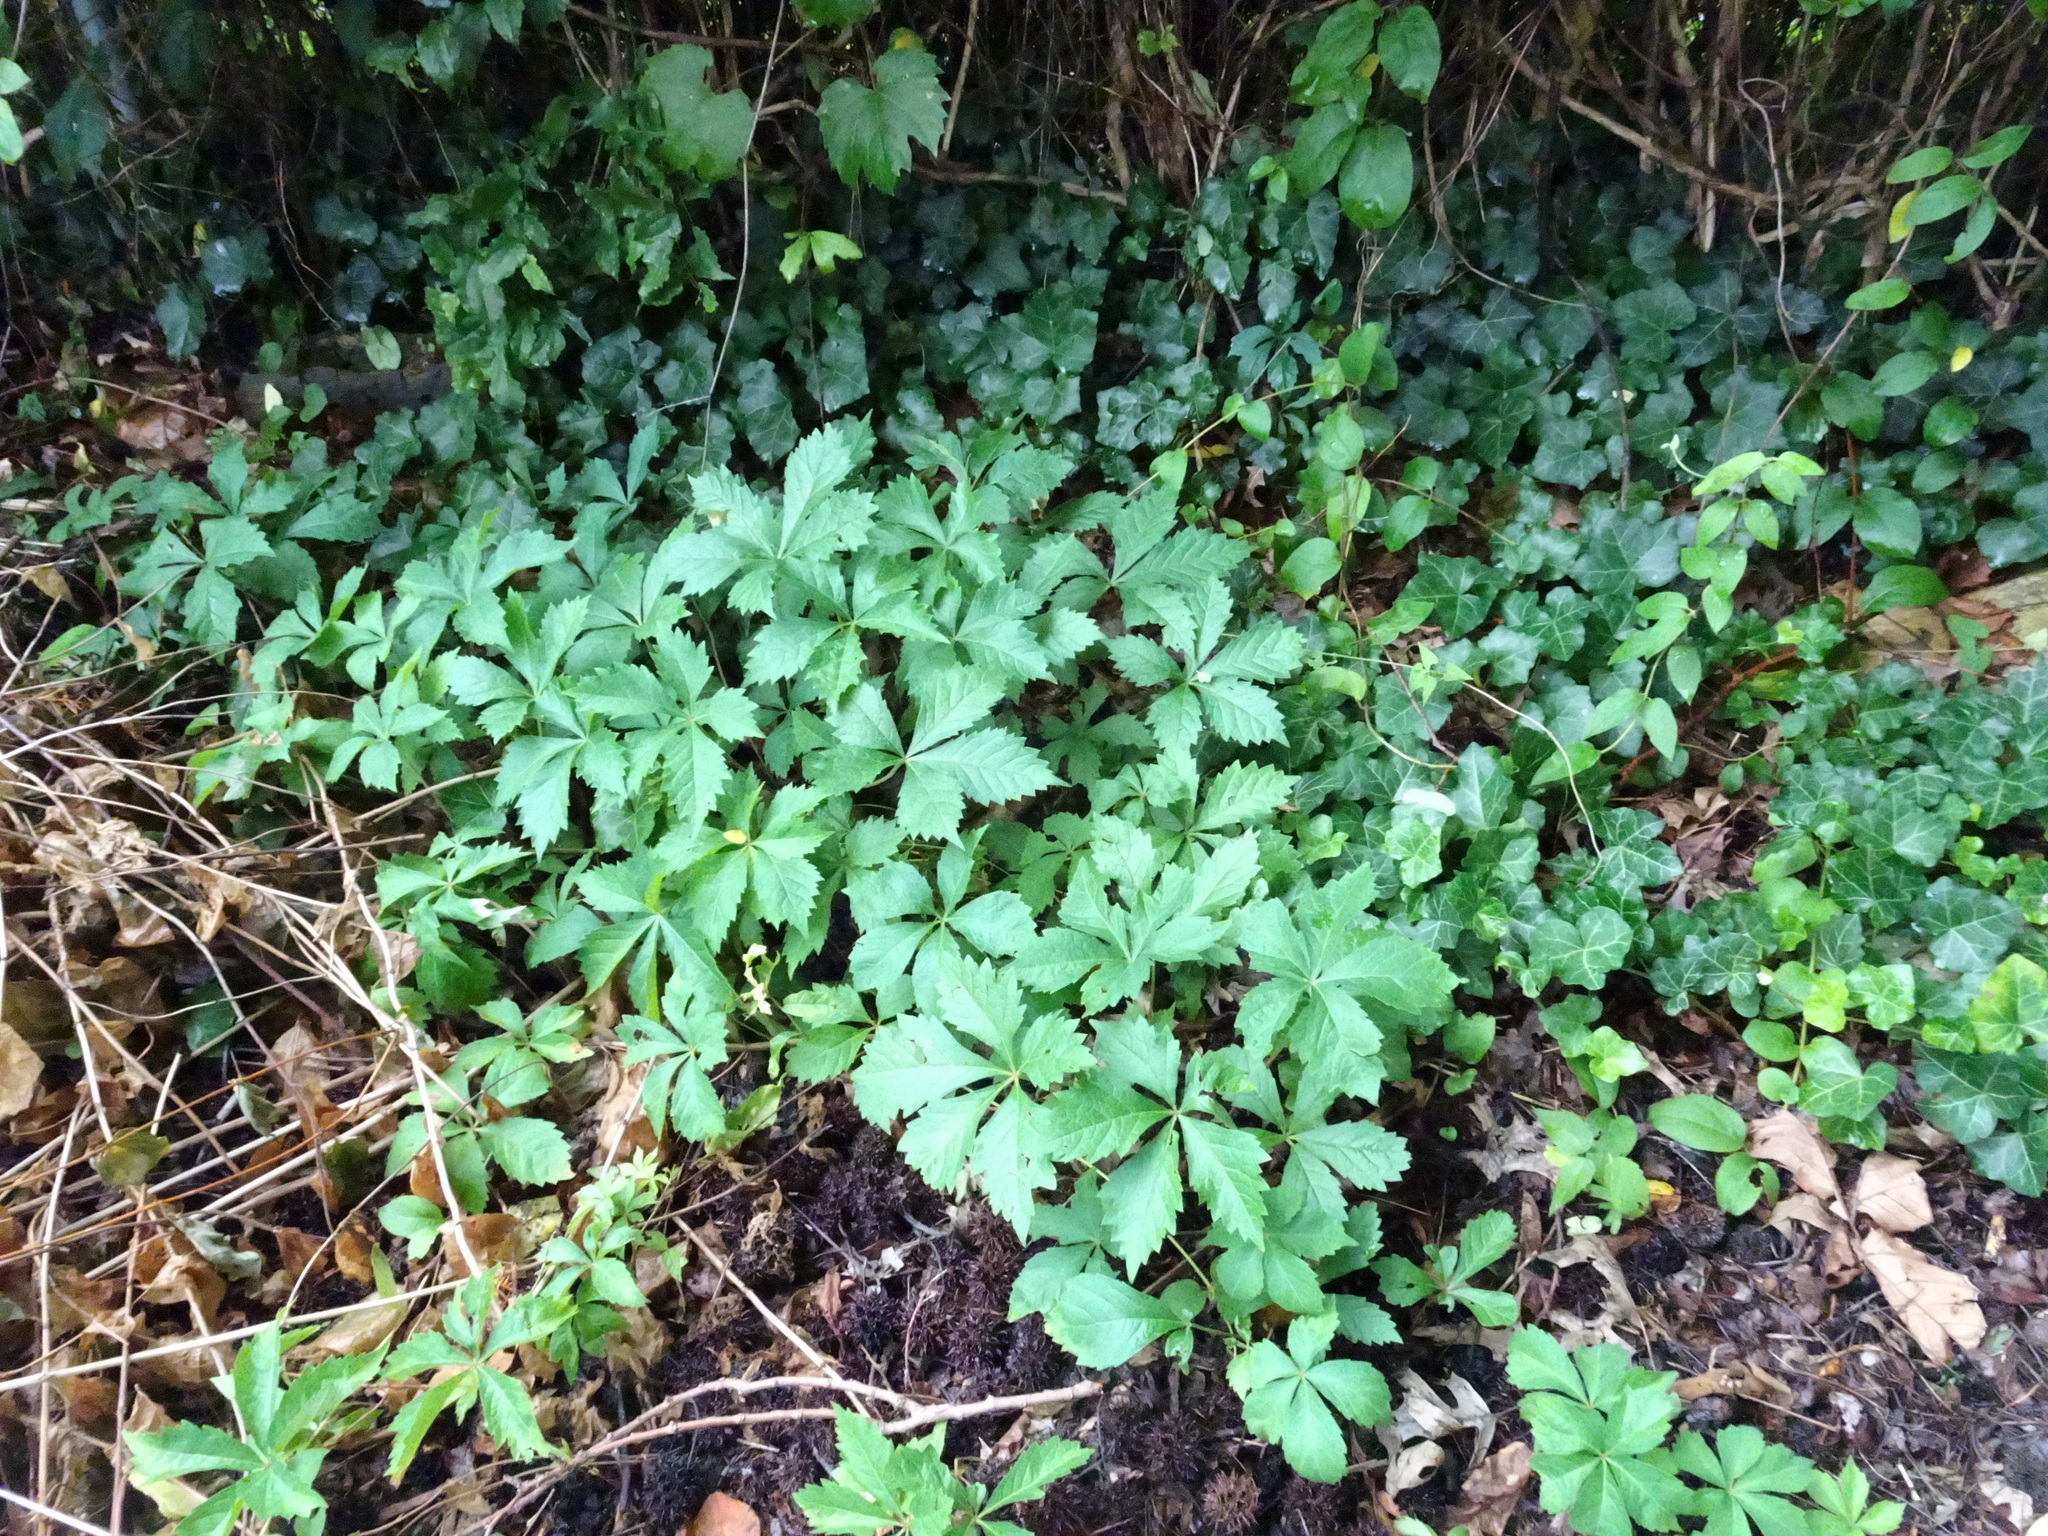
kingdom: Plantae
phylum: Tracheophyta
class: Magnoliopsida
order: Vitales
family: Vitaceae
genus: Parthenocissus
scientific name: Parthenocissus quinquefolia
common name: Virginia-creeper
